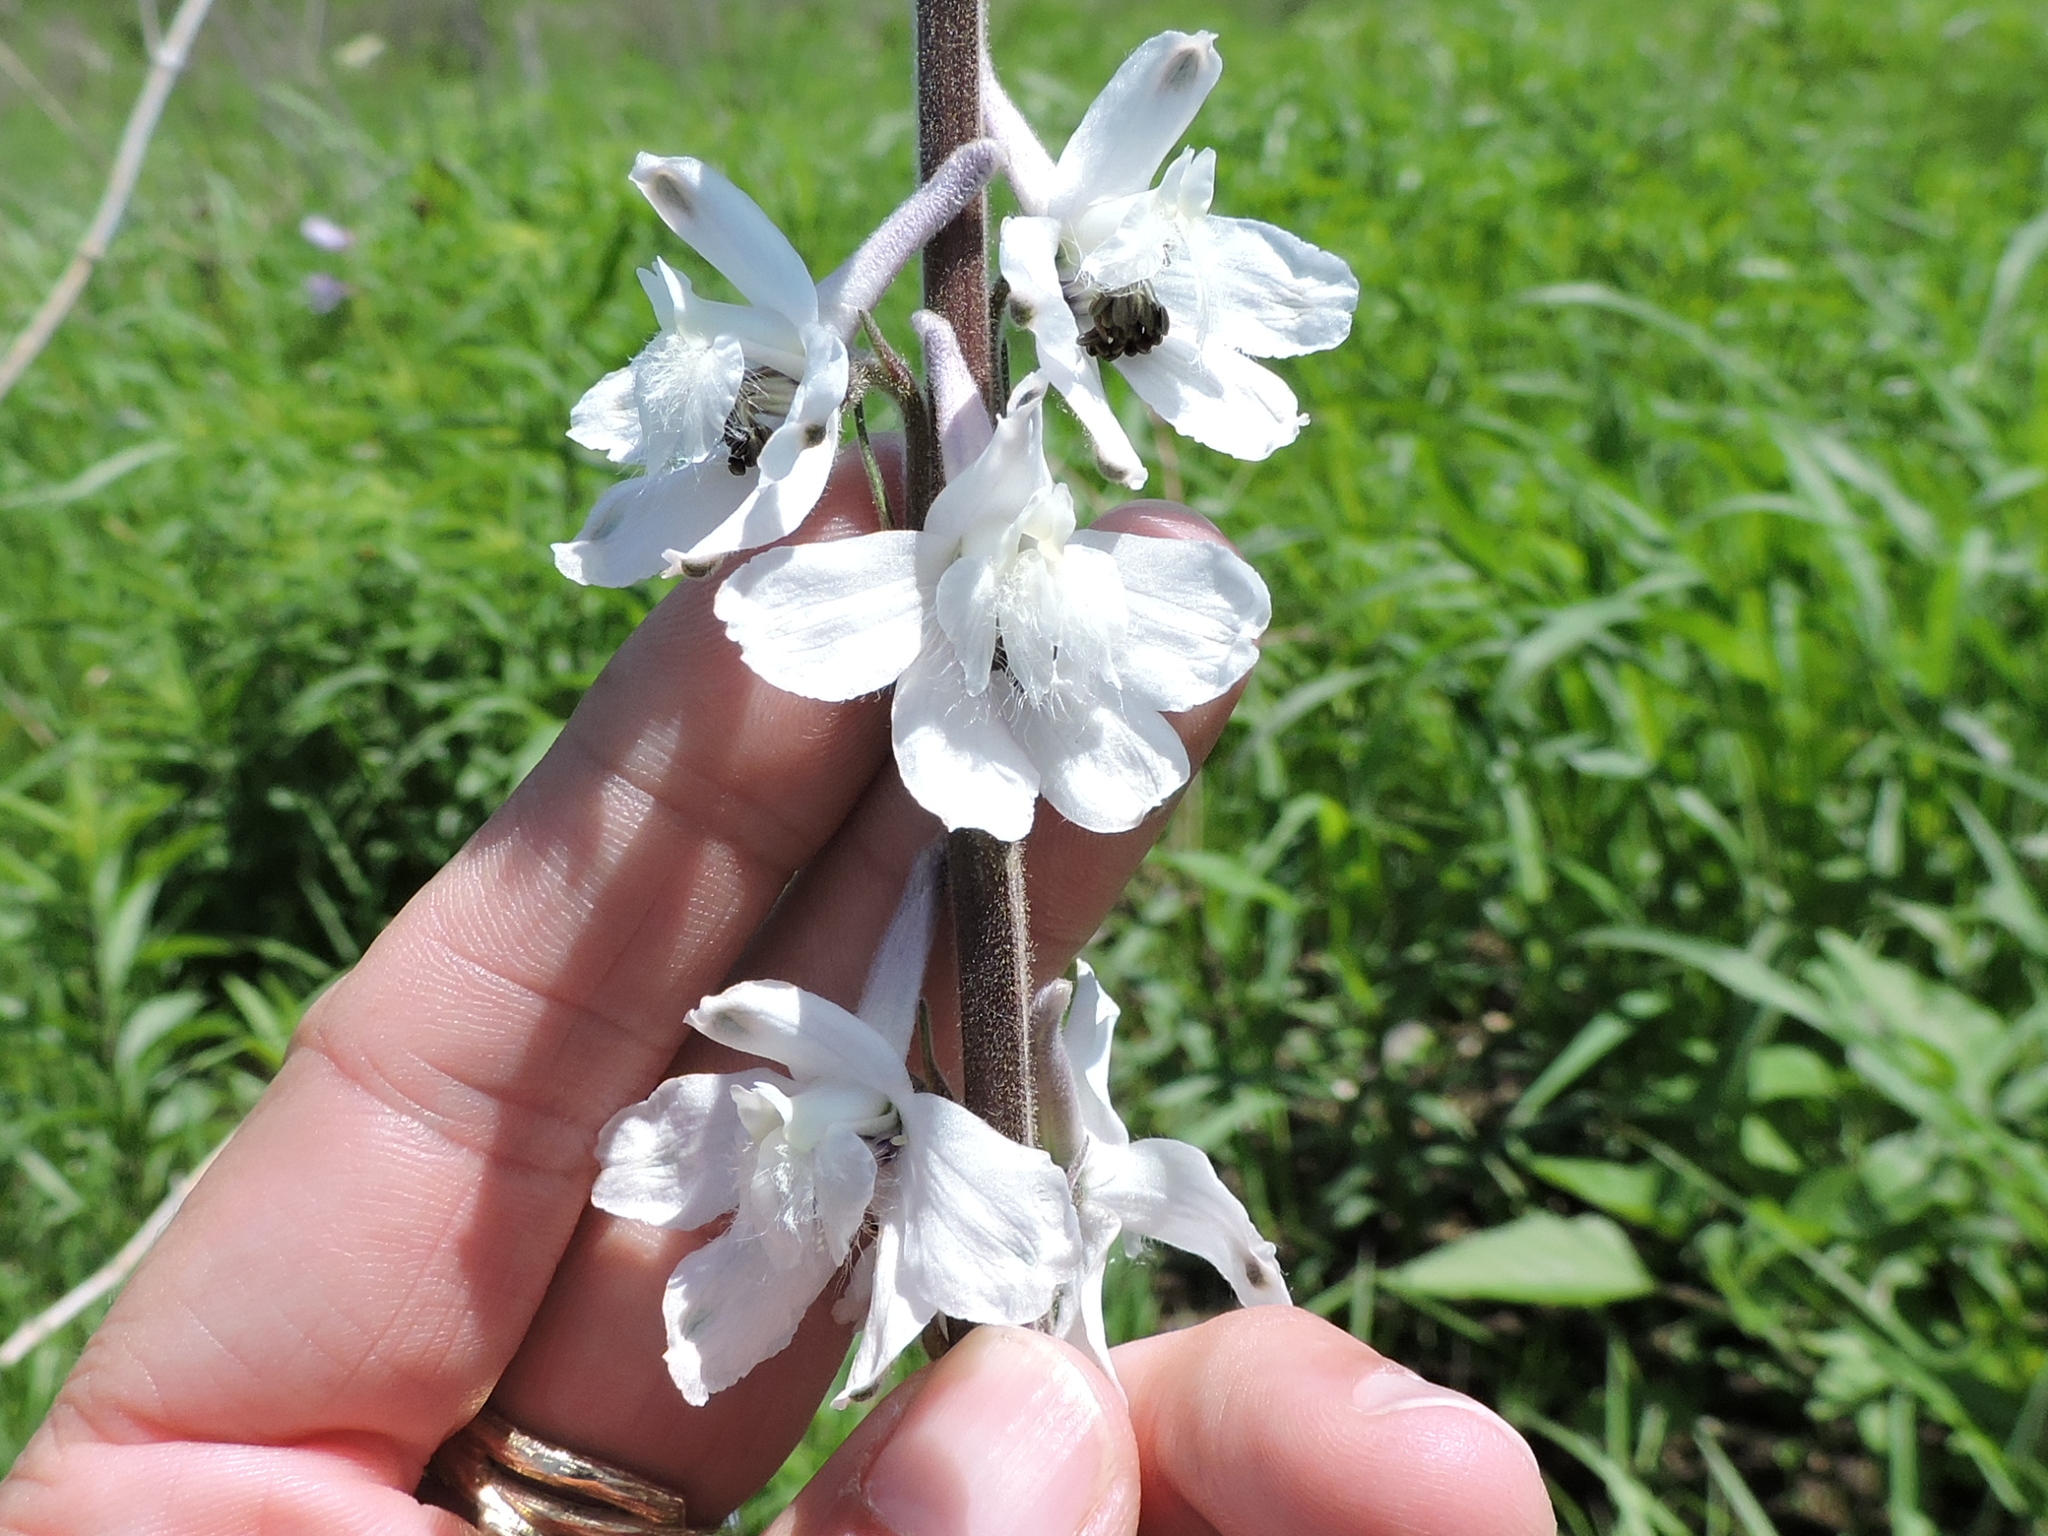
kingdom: Plantae
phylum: Tracheophyta
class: Magnoliopsida
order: Ranunculales
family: Ranunculaceae
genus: Delphinium
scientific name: Delphinium carolinianum
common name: Carolina larkspur
